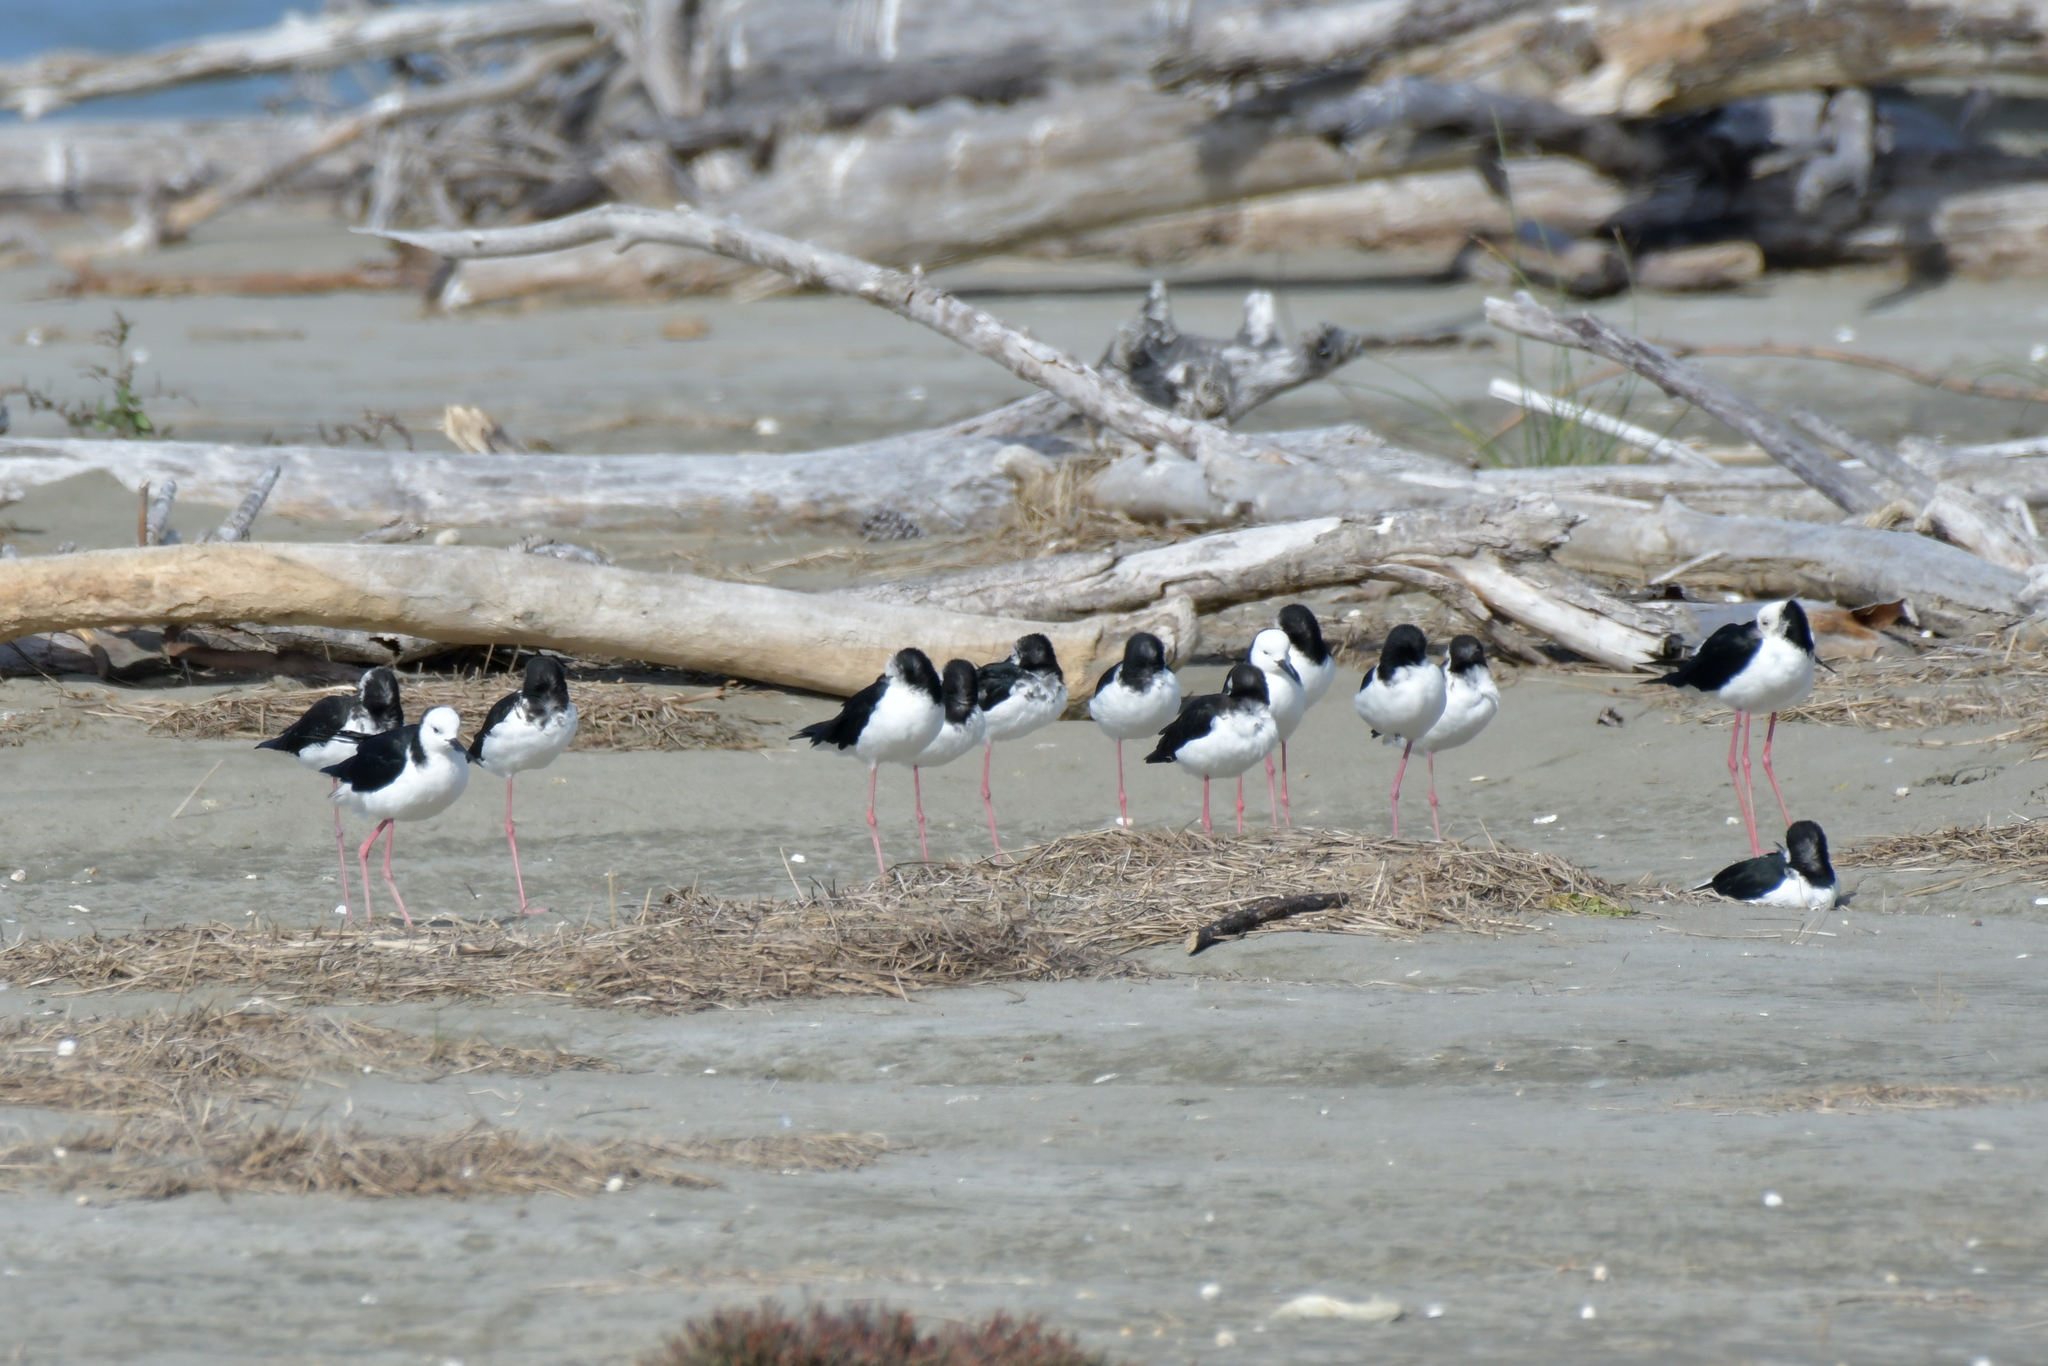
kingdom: Animalia
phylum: Chordata
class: Aves
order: Charadriiformes
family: Recurvirostridae
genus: Himantopus
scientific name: Himantopus leucocephalus
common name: White-headed stilt
